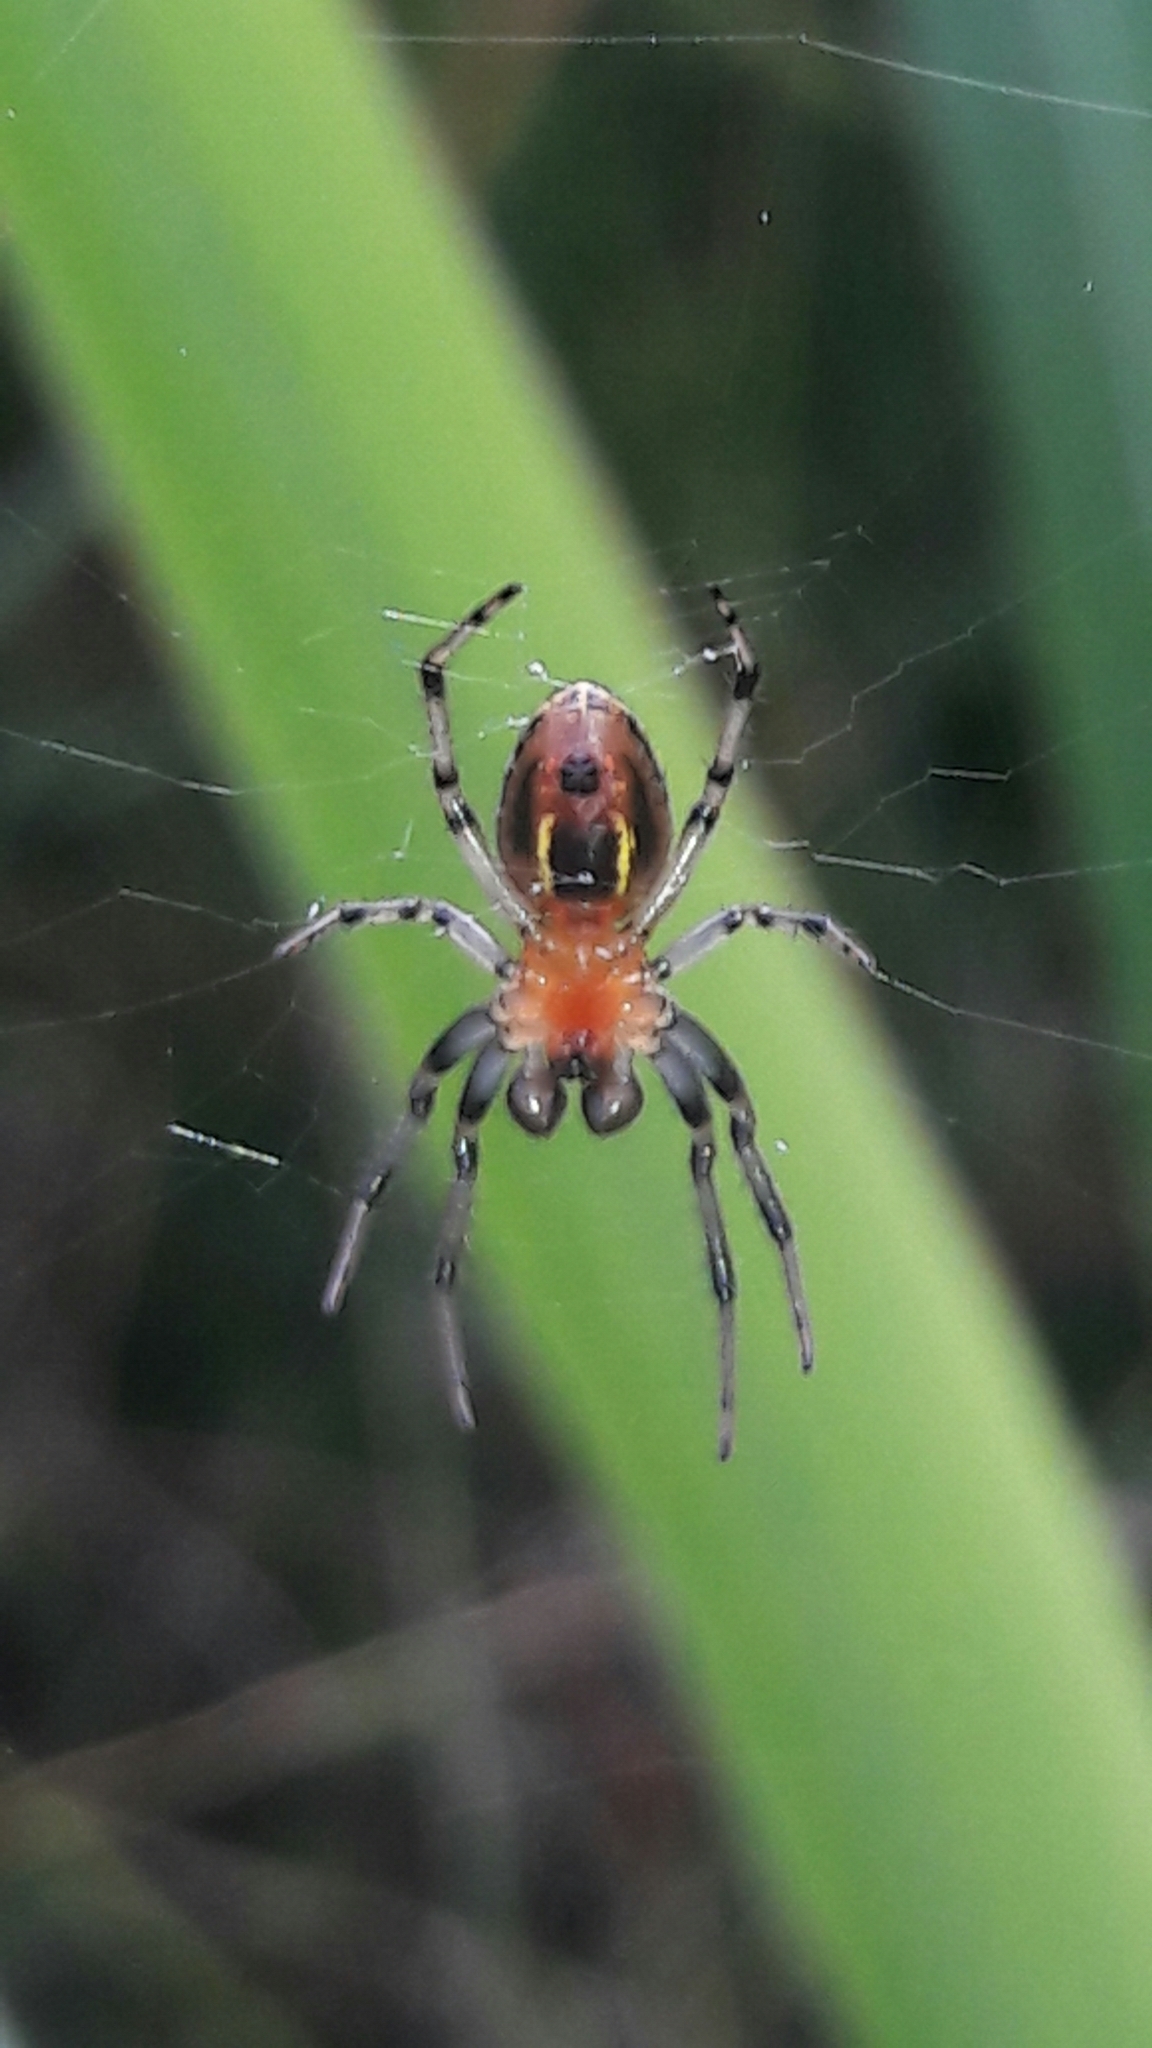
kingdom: Animalia
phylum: Arthropoda
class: Arachnida
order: Araneae
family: Araneidae
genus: Alpaida
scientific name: Alpaida veniliae
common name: Orb weavers
